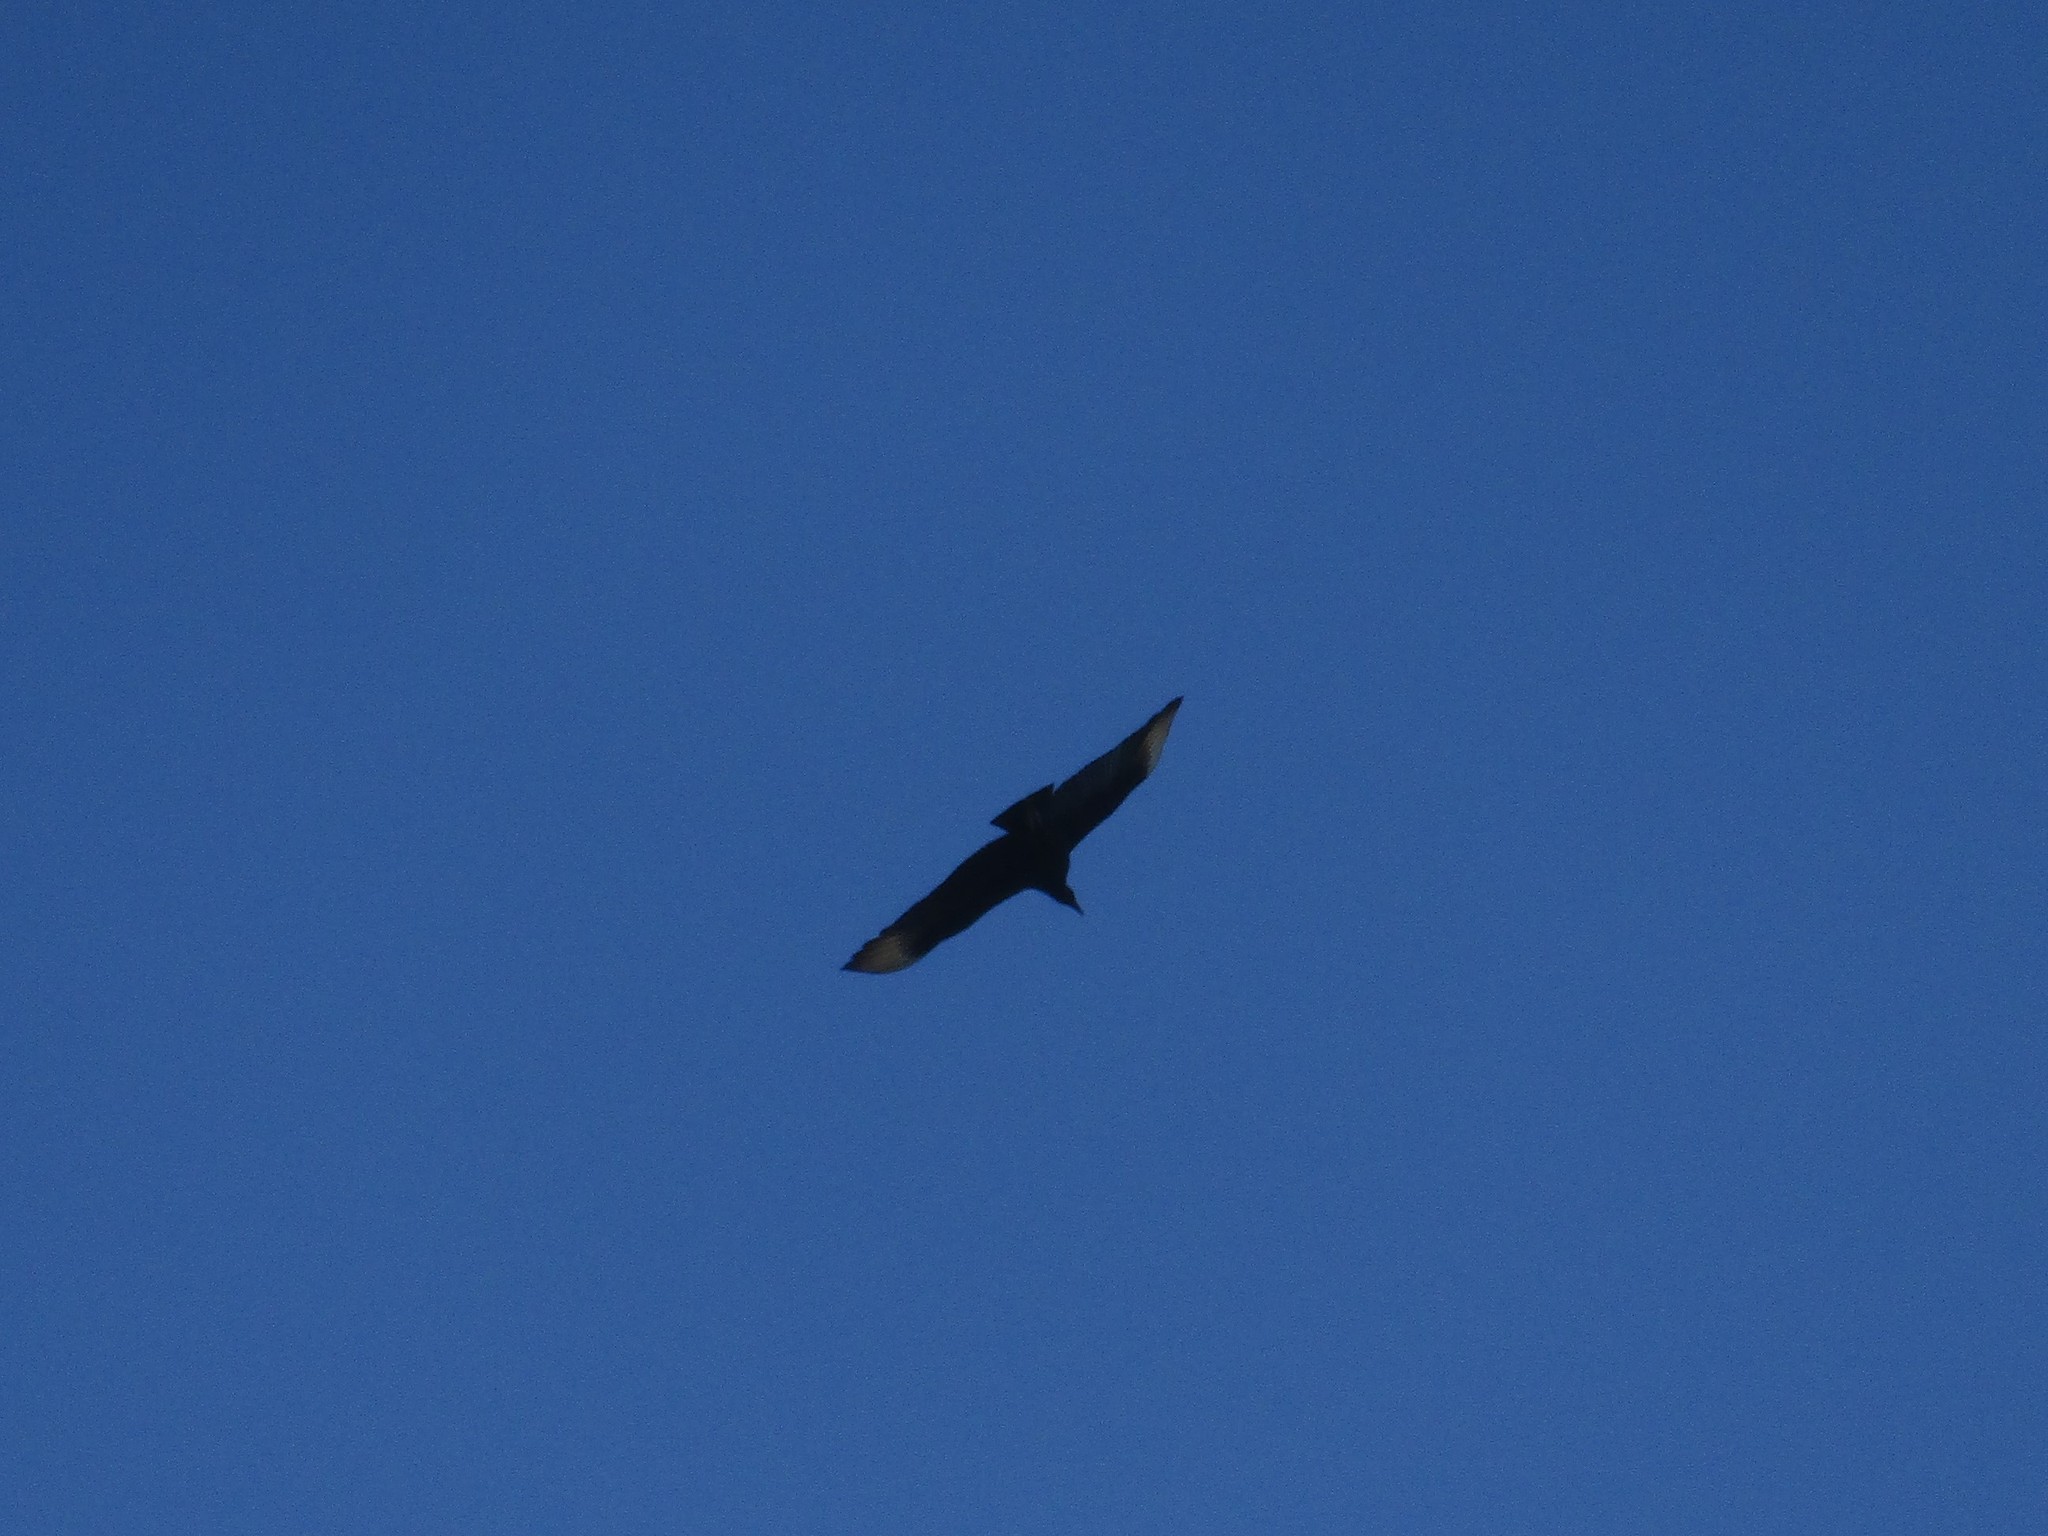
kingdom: Animalia
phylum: Chordata
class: Aves
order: Accipitriformes
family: Cathartidae
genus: Coragyps
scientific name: Coragyps atratus
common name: Black vulture
